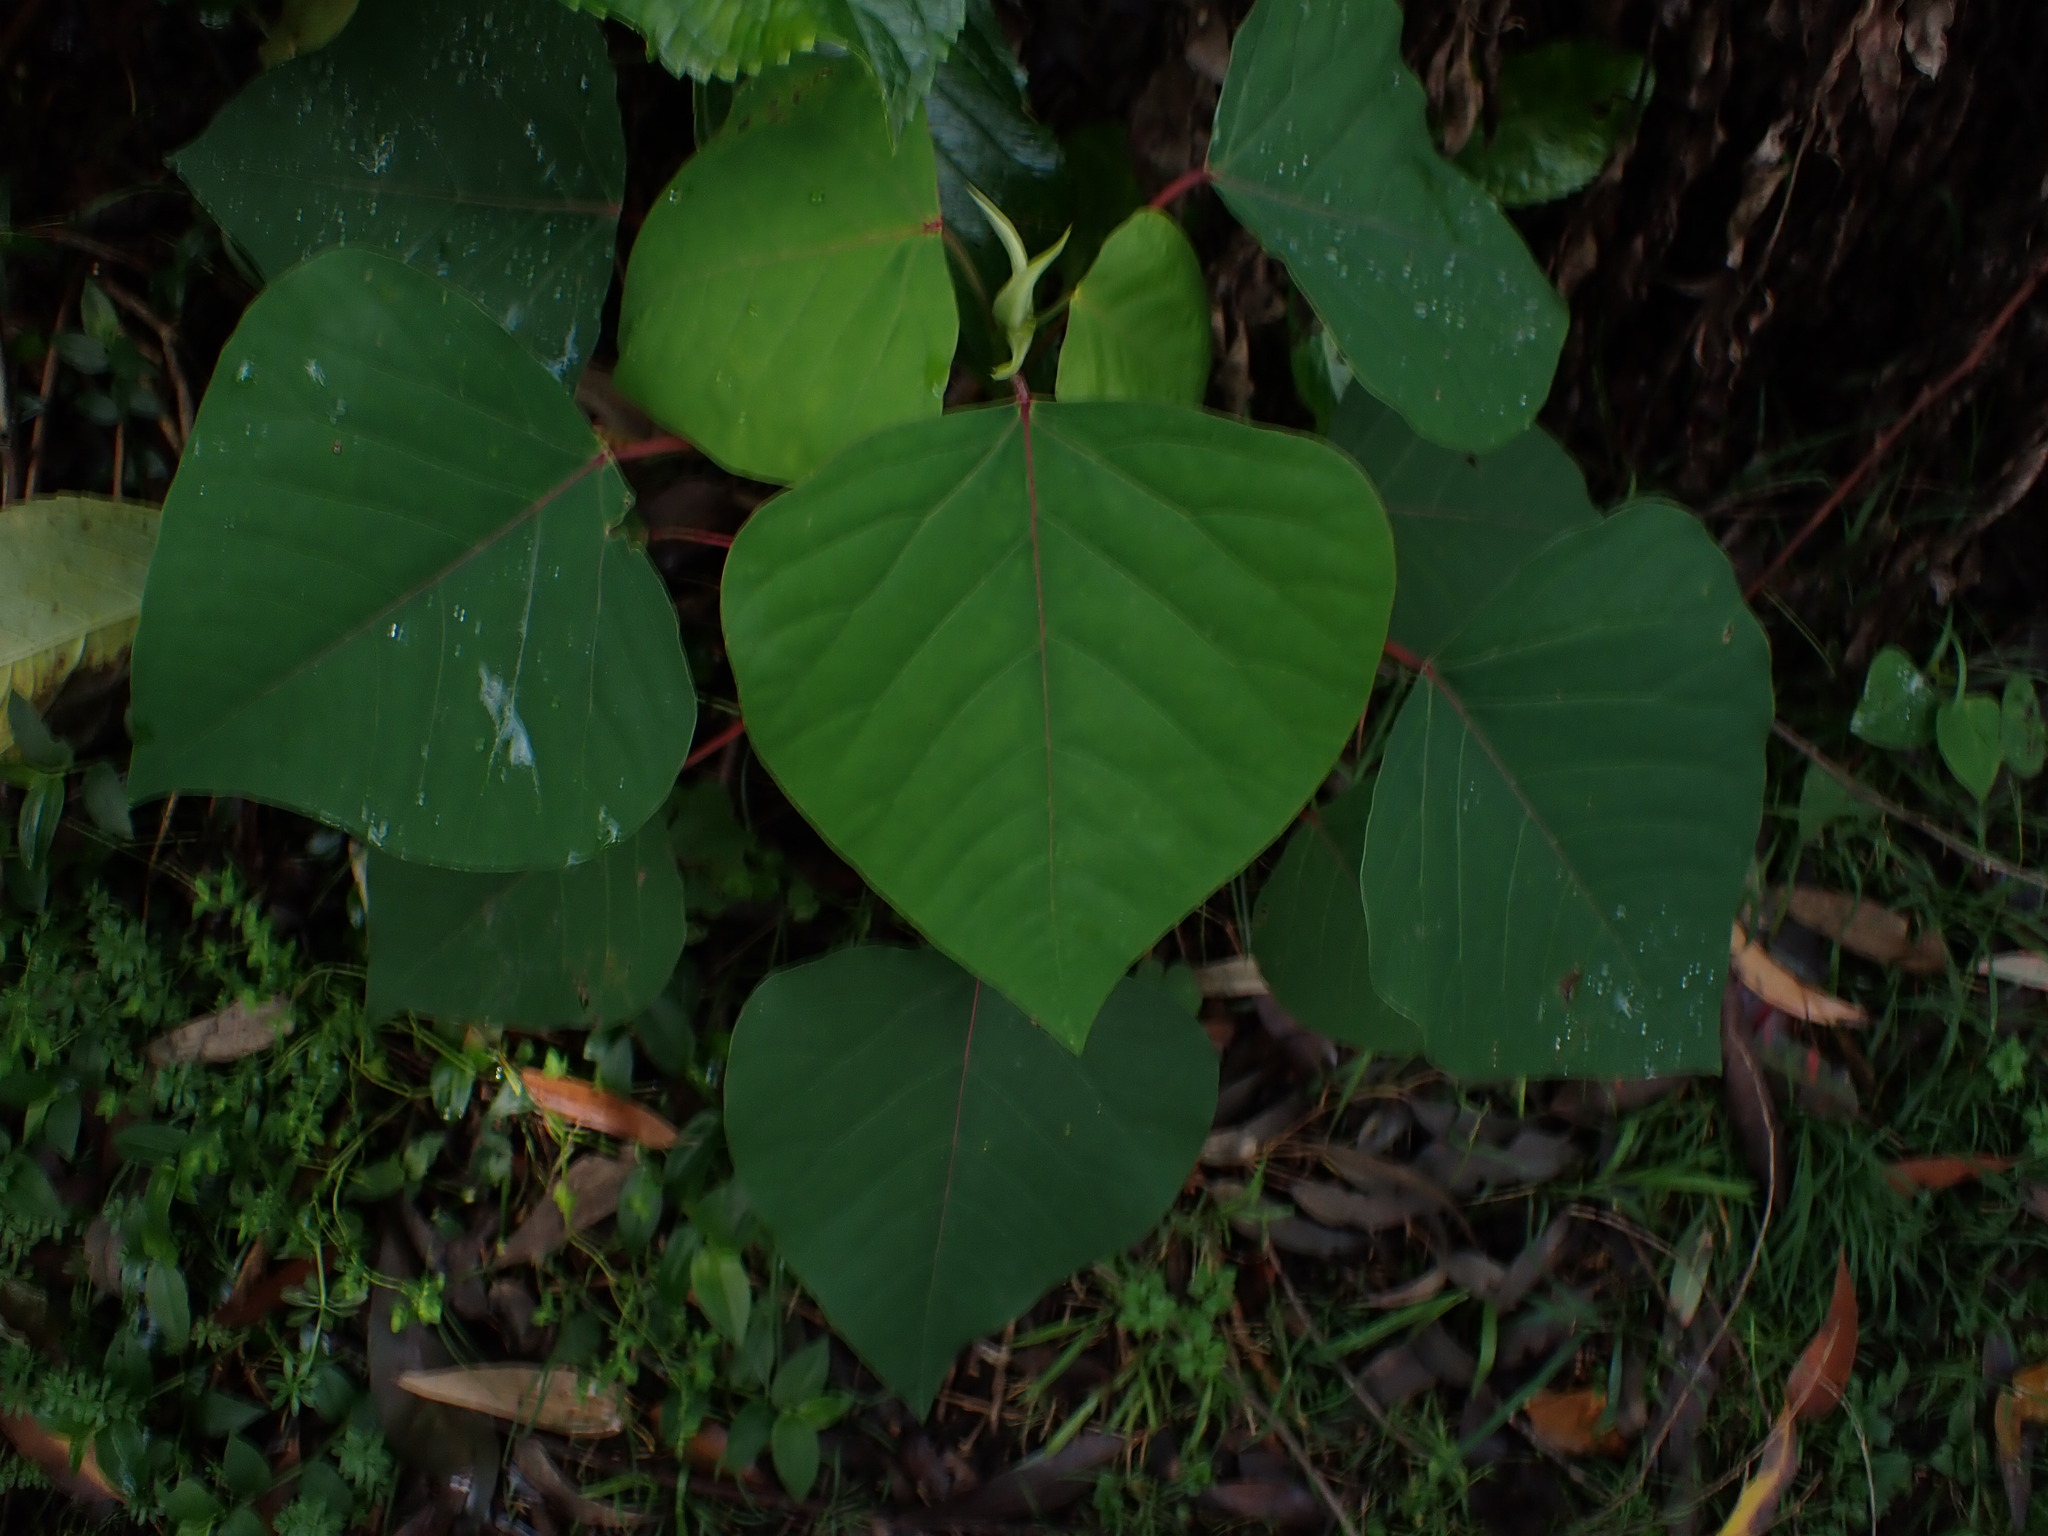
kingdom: Plantae
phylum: Tracheophyta
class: Magnoliopsida
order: Malpighiales
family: Euphorbiaceae
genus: Homalanthus
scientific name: Homalanthus populifolius
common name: Queensland poplar
